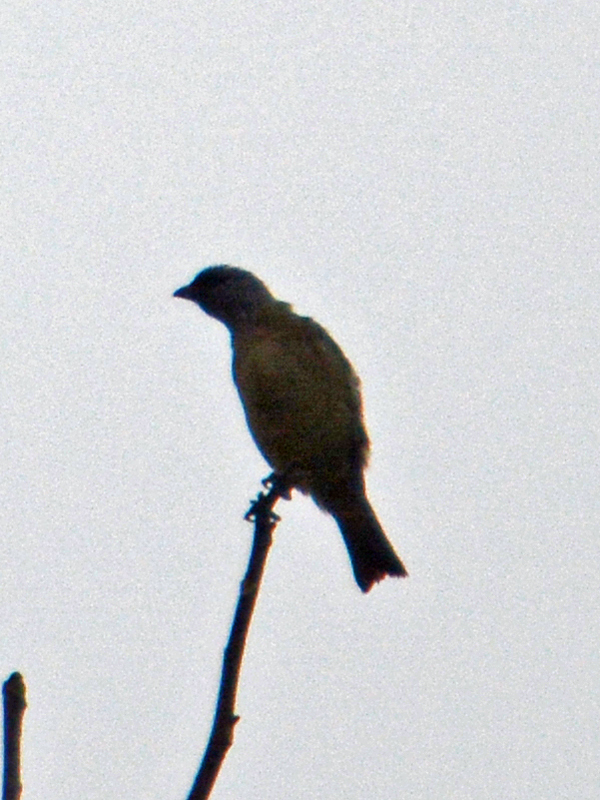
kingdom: Animalia
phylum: Chordata
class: Aves
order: Passeriformes
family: Thraupidae
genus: Thraupis
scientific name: Thraupis abbas
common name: Yellow-winged tanager
